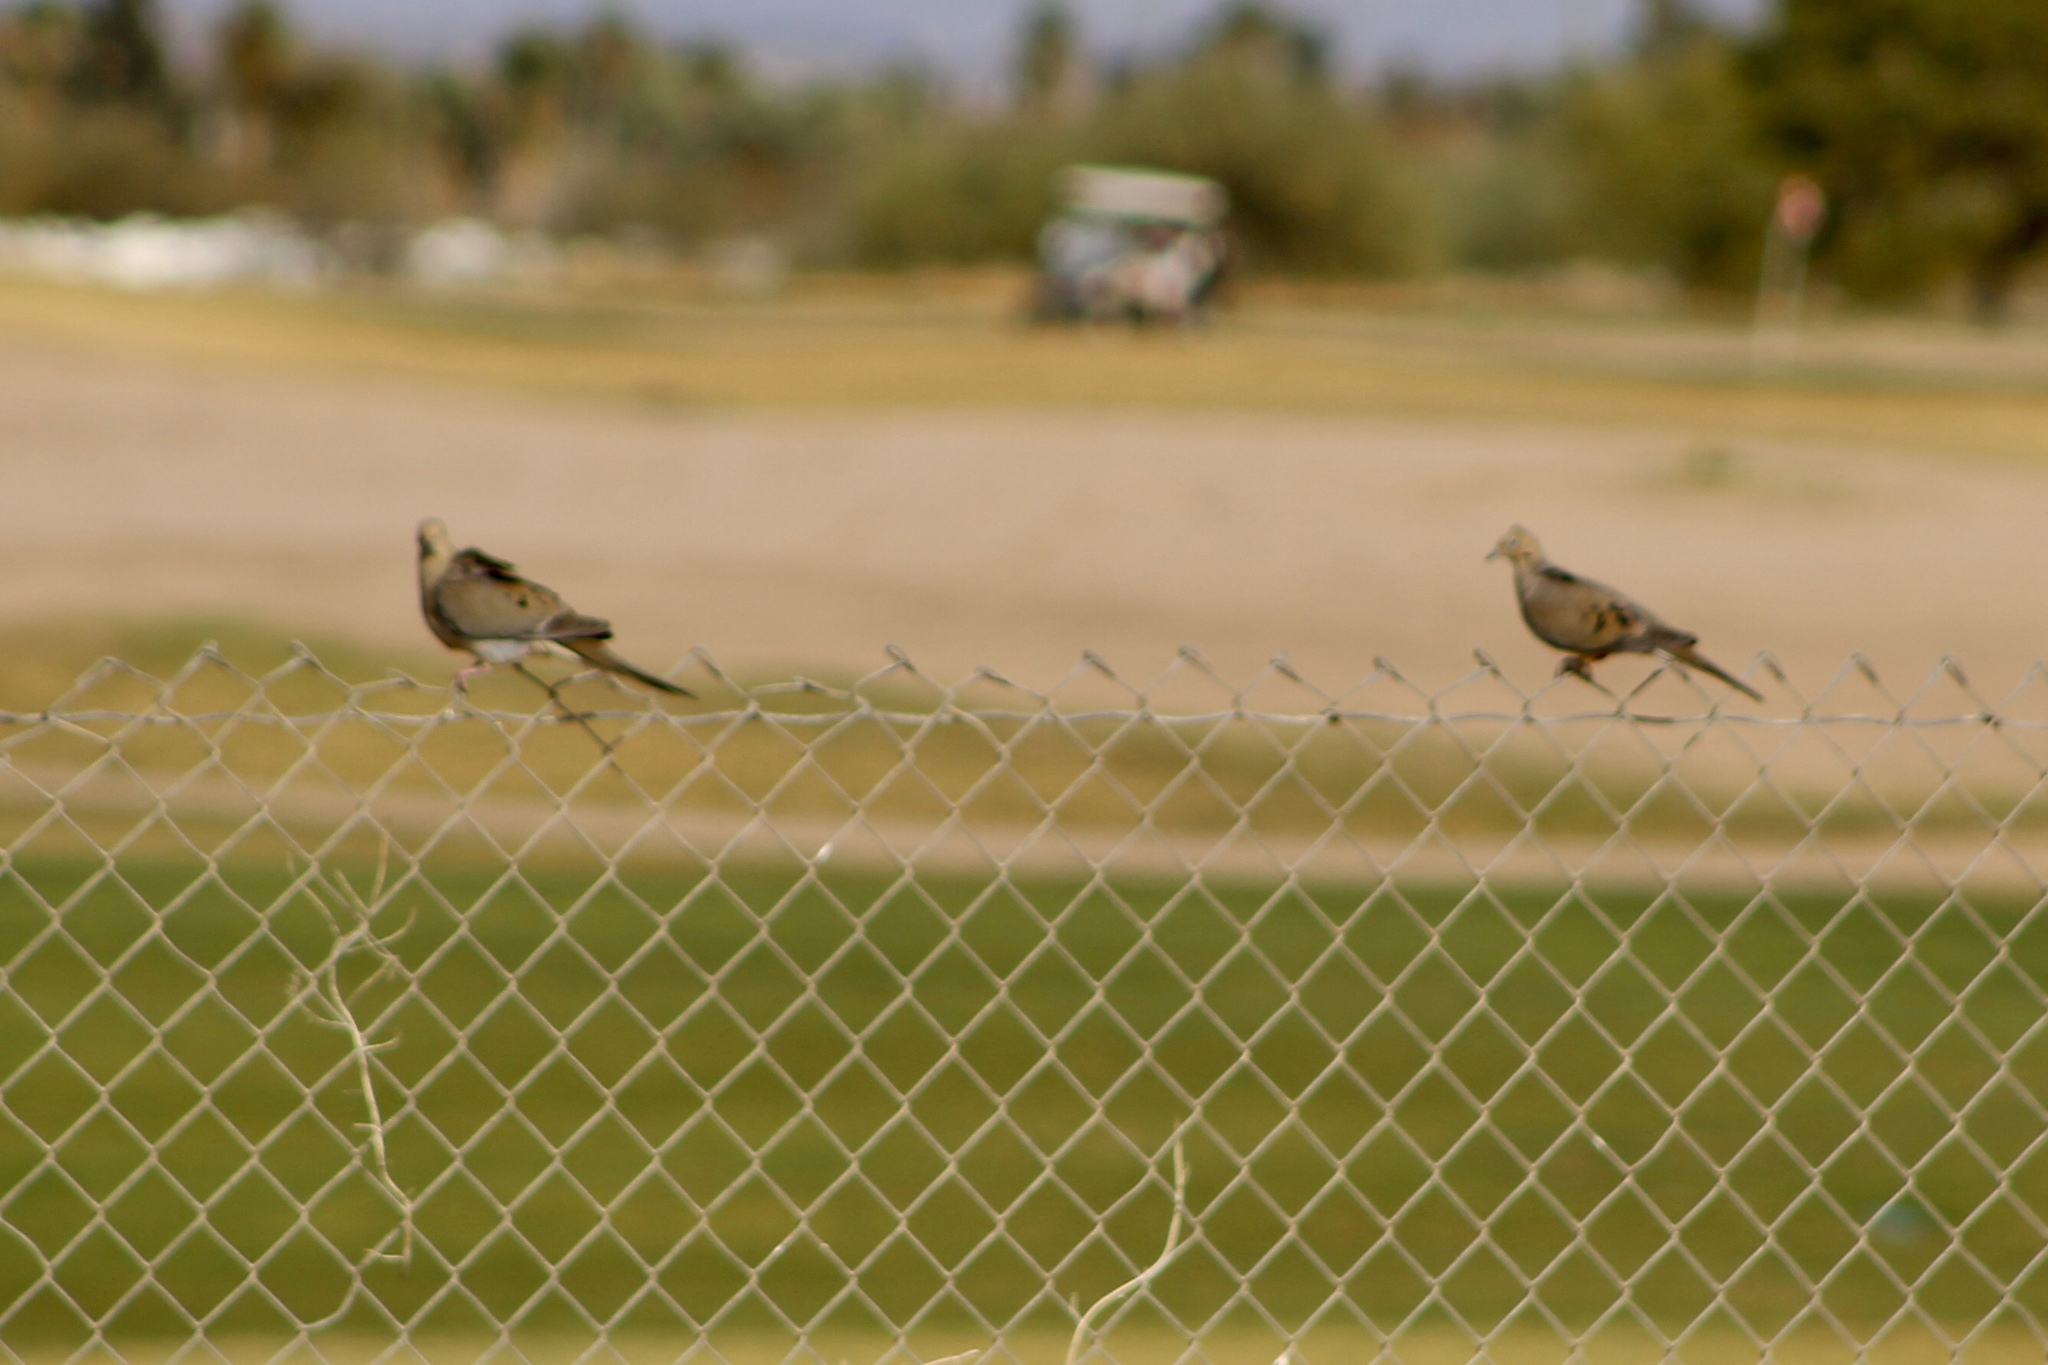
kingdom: Animalia
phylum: Chordata
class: Aves
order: Columbiformes
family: Columbidae
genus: Zenaida
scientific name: Zenaida macroura
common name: Mourning dove
